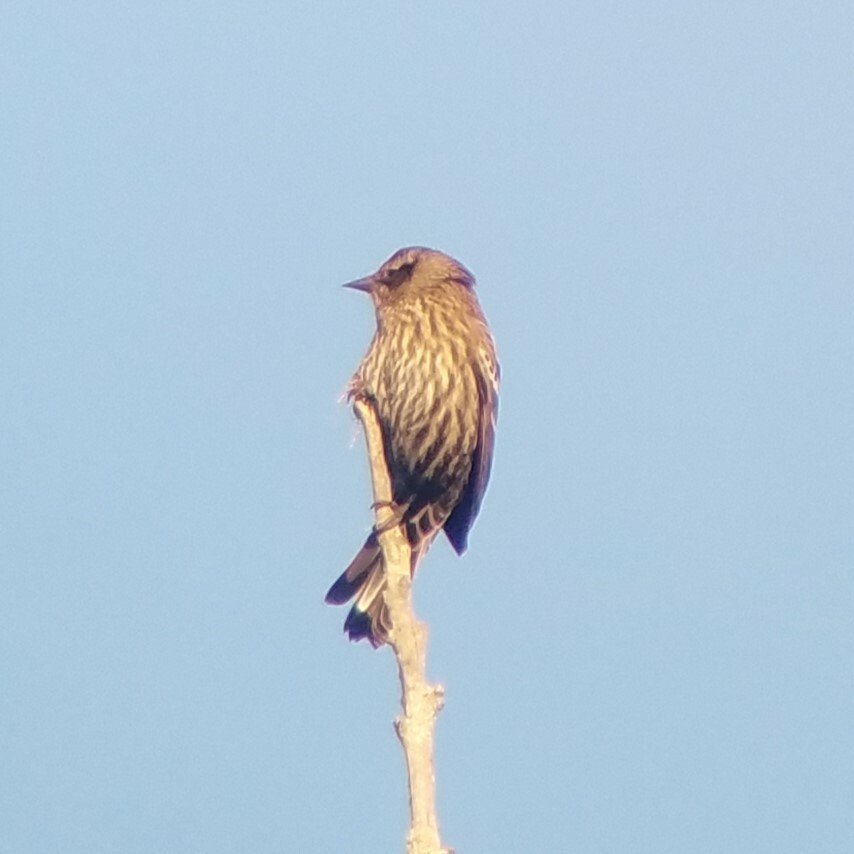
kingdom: Animalia
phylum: Chordata
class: Aves
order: Passeriformes
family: Icteridae
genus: Agelaius
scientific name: Agelaius phoeniceus
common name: Red-winged blackbird
